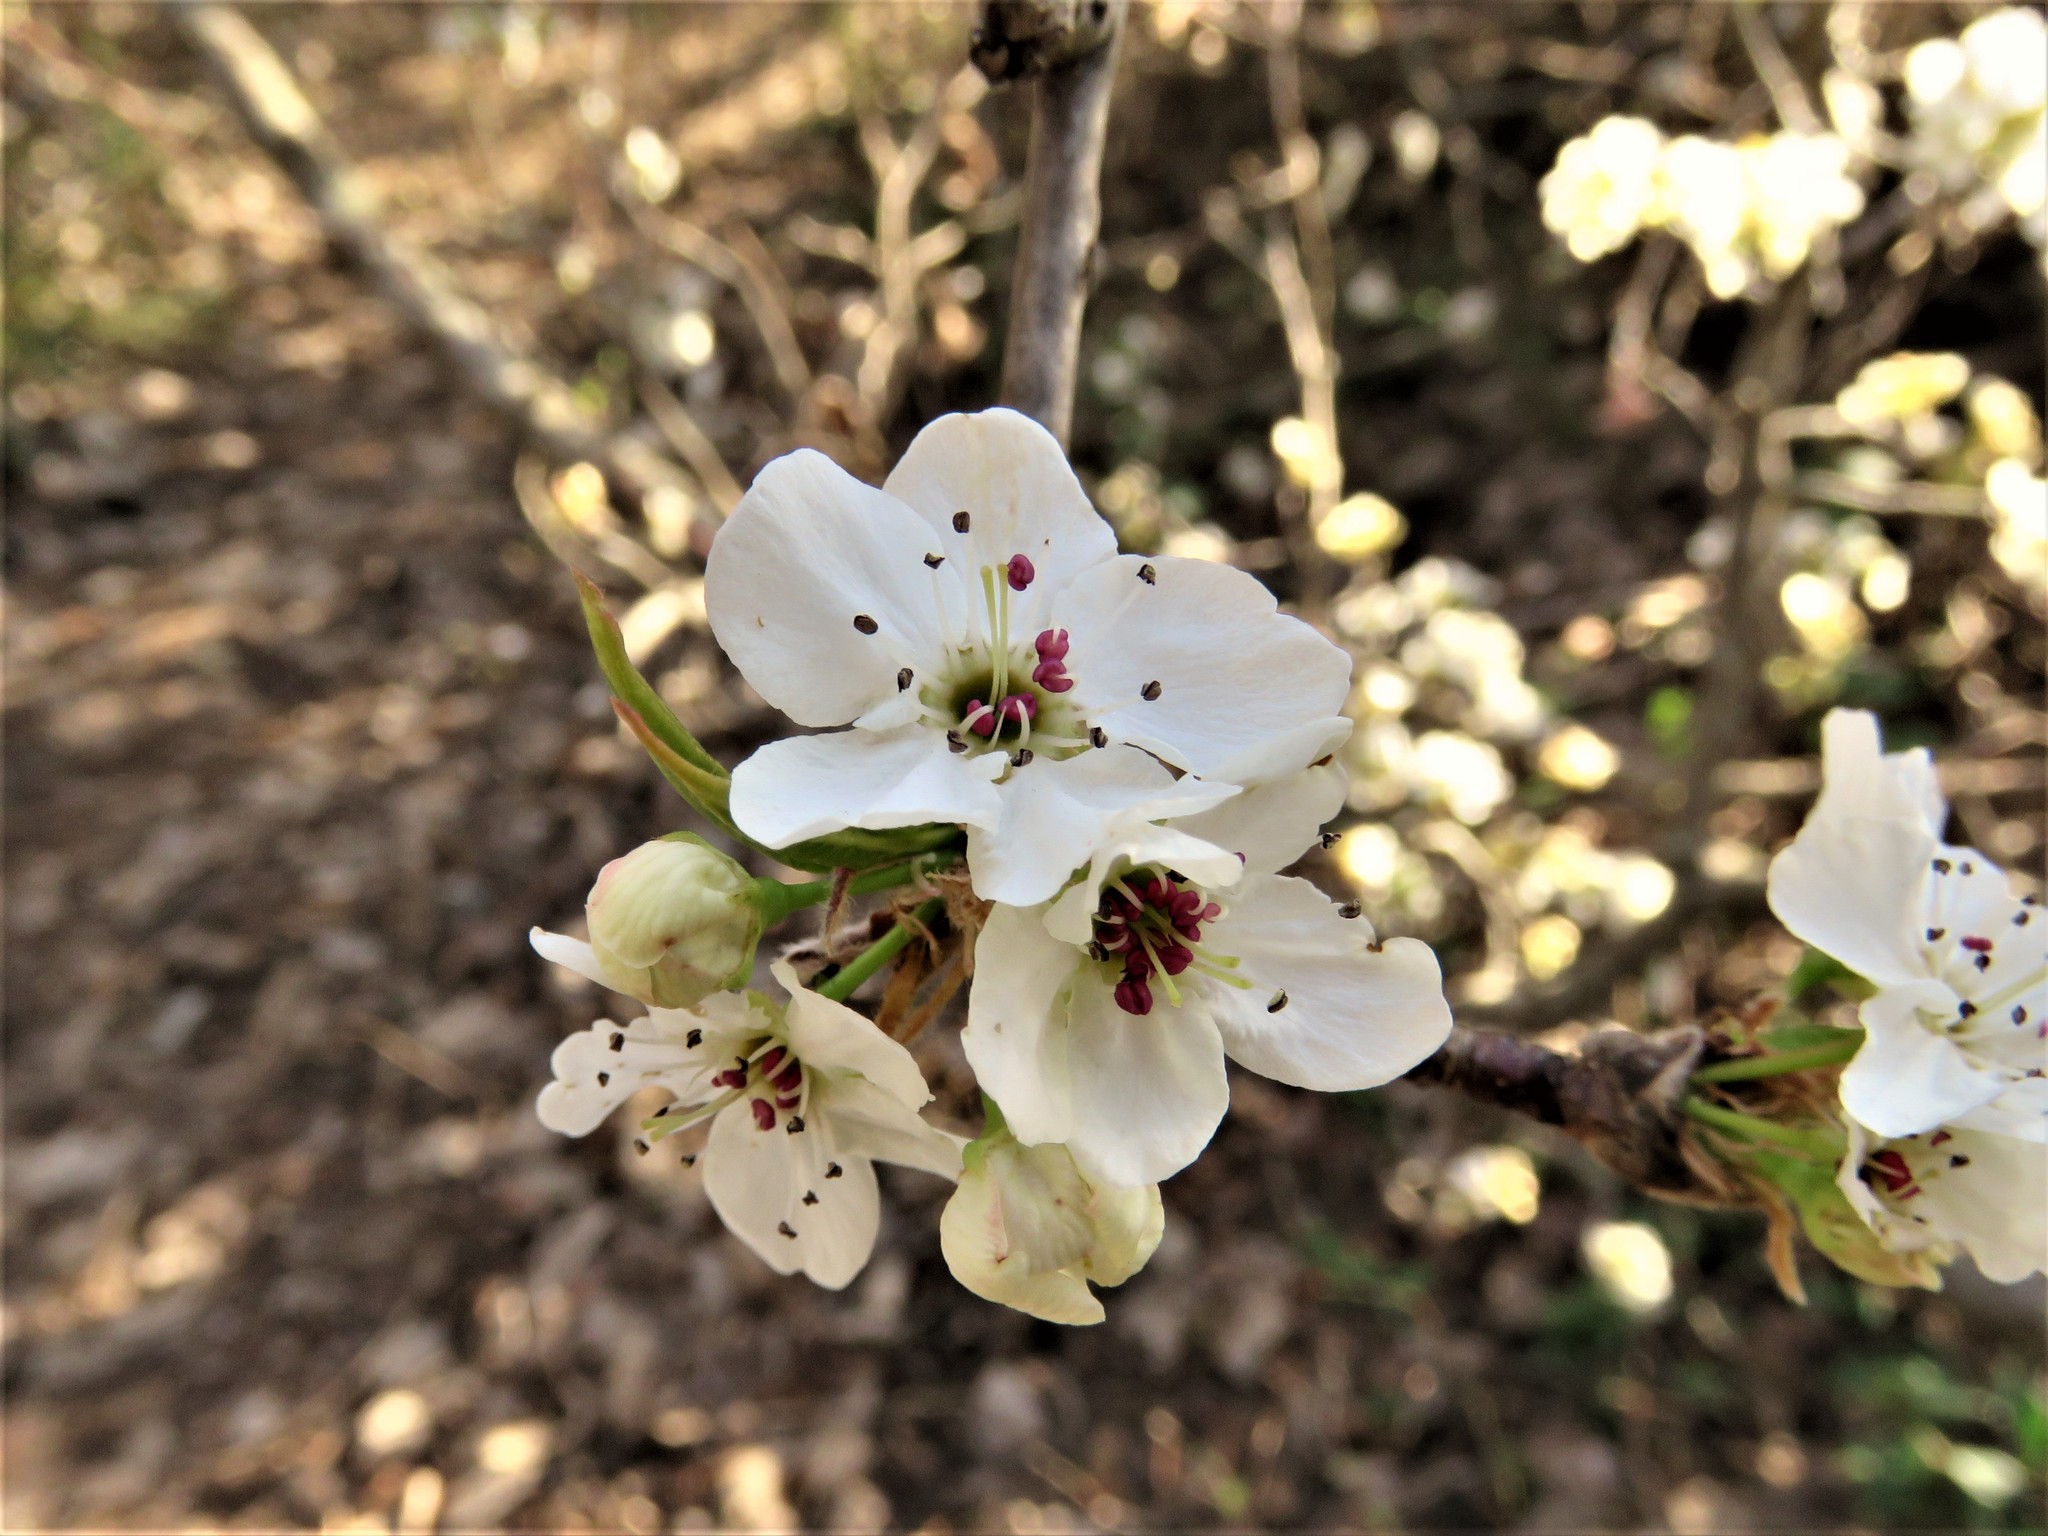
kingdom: Plantae
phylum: Tracheophyta
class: Magnoliopsida
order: Rosales
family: Rosaceae
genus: Pyrus
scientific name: Pyrus calleryana
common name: Callery pear
